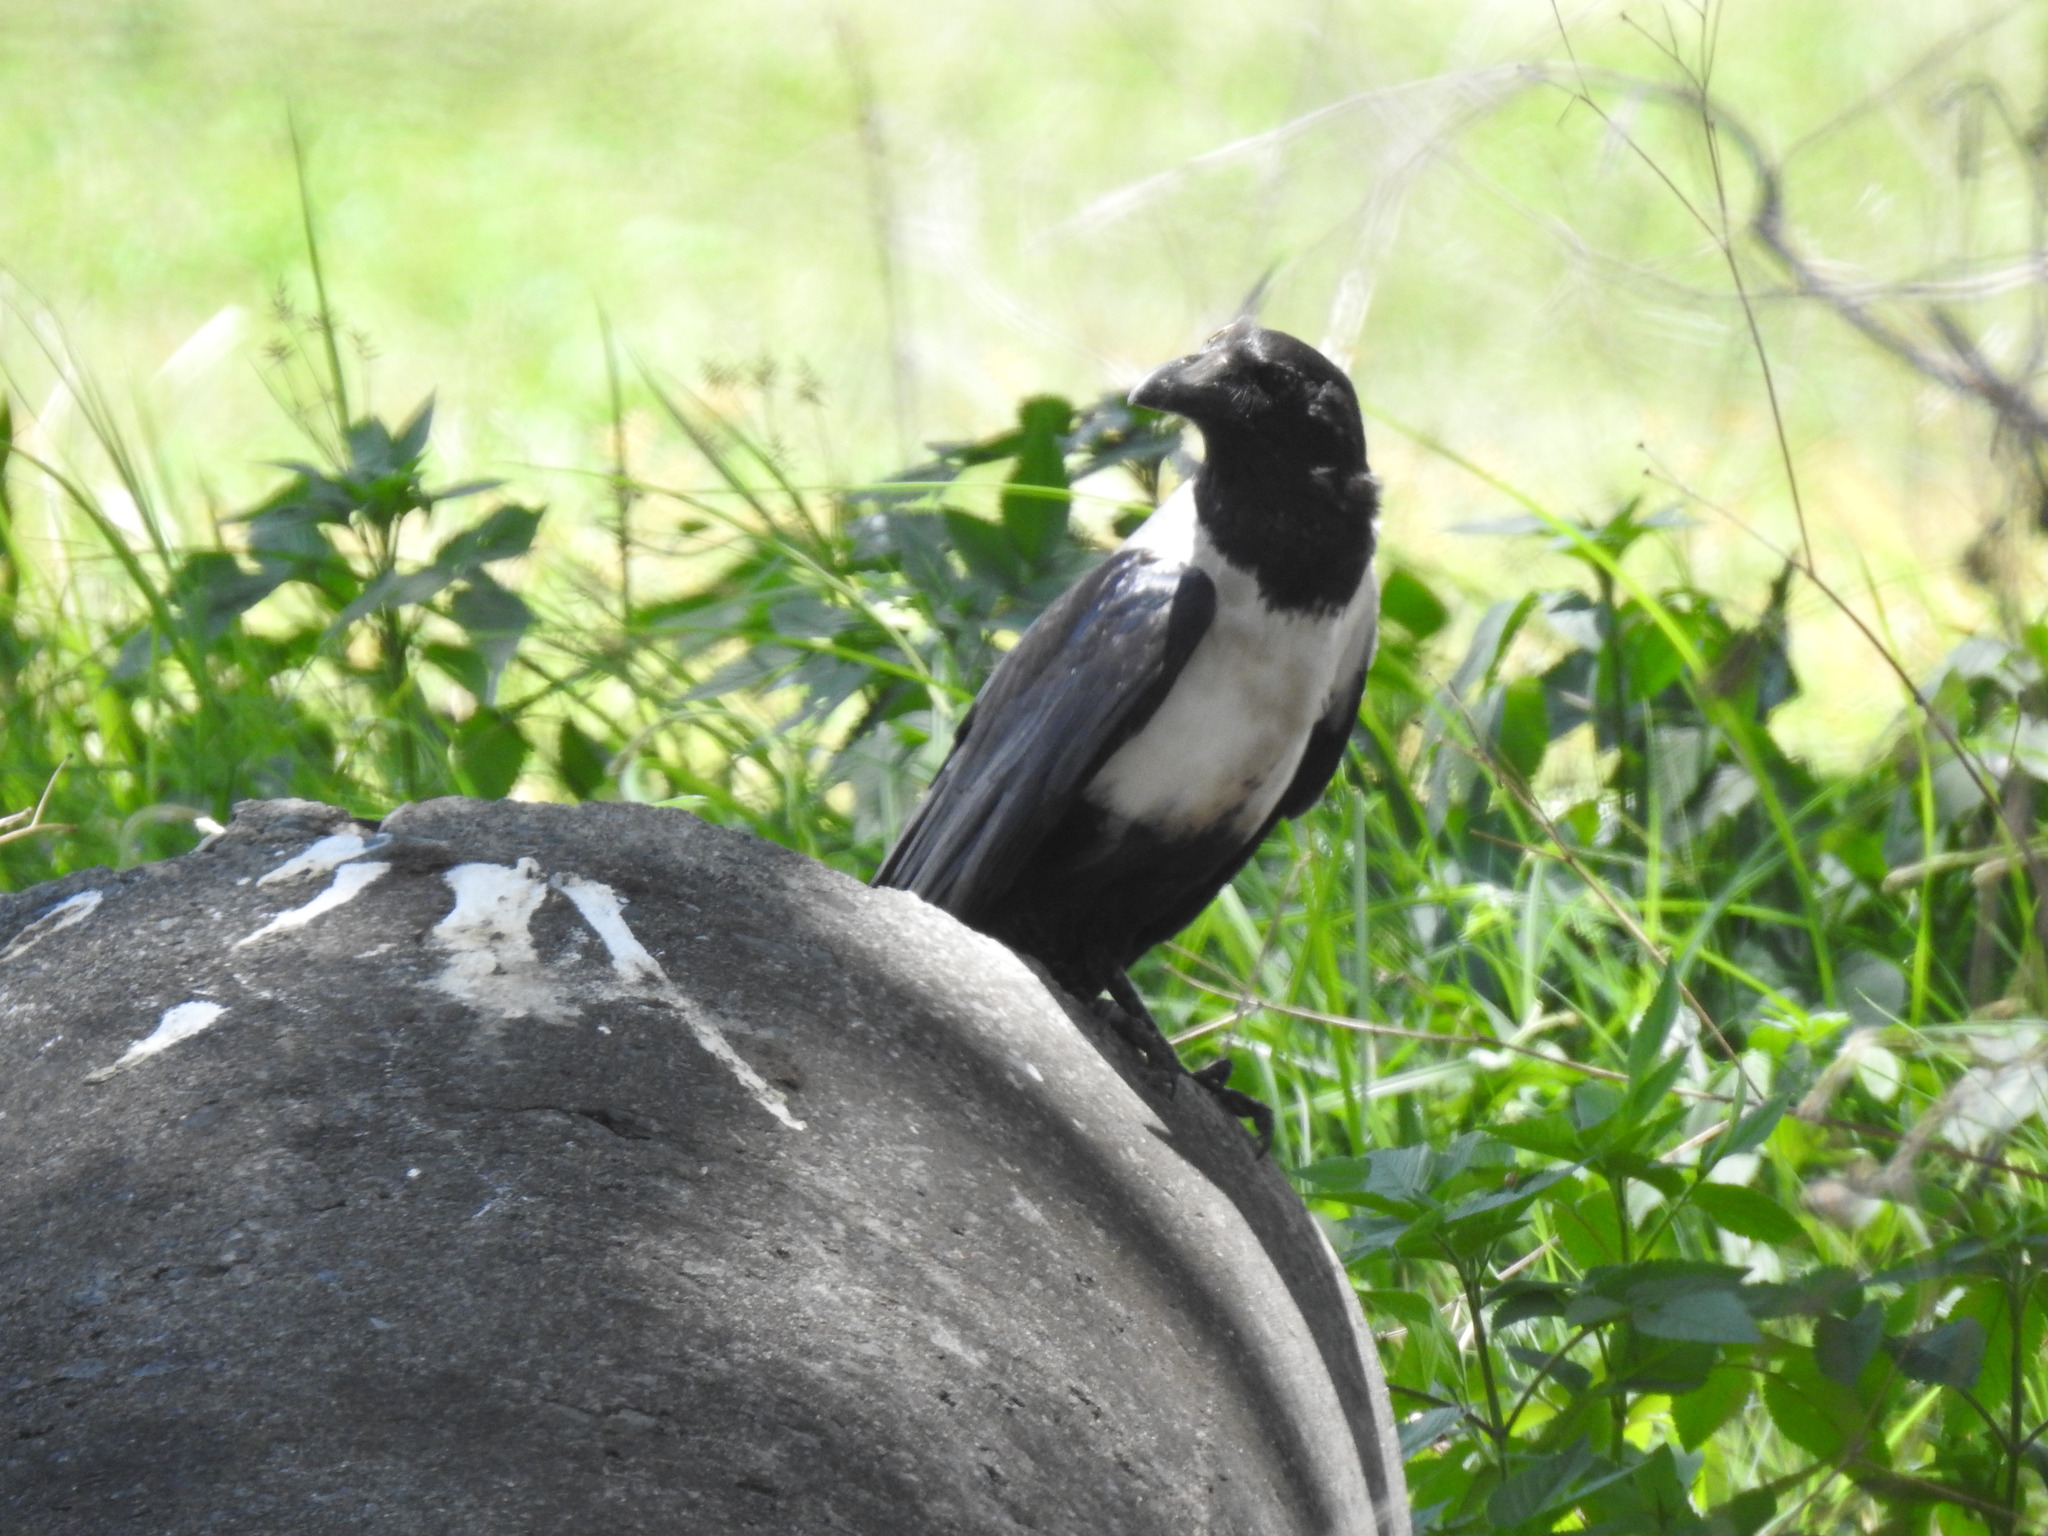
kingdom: Animalia
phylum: Chordata
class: Aves
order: Passeriformes
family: Corvidae
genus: Corvus
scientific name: Corvus albus
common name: Pied crow
